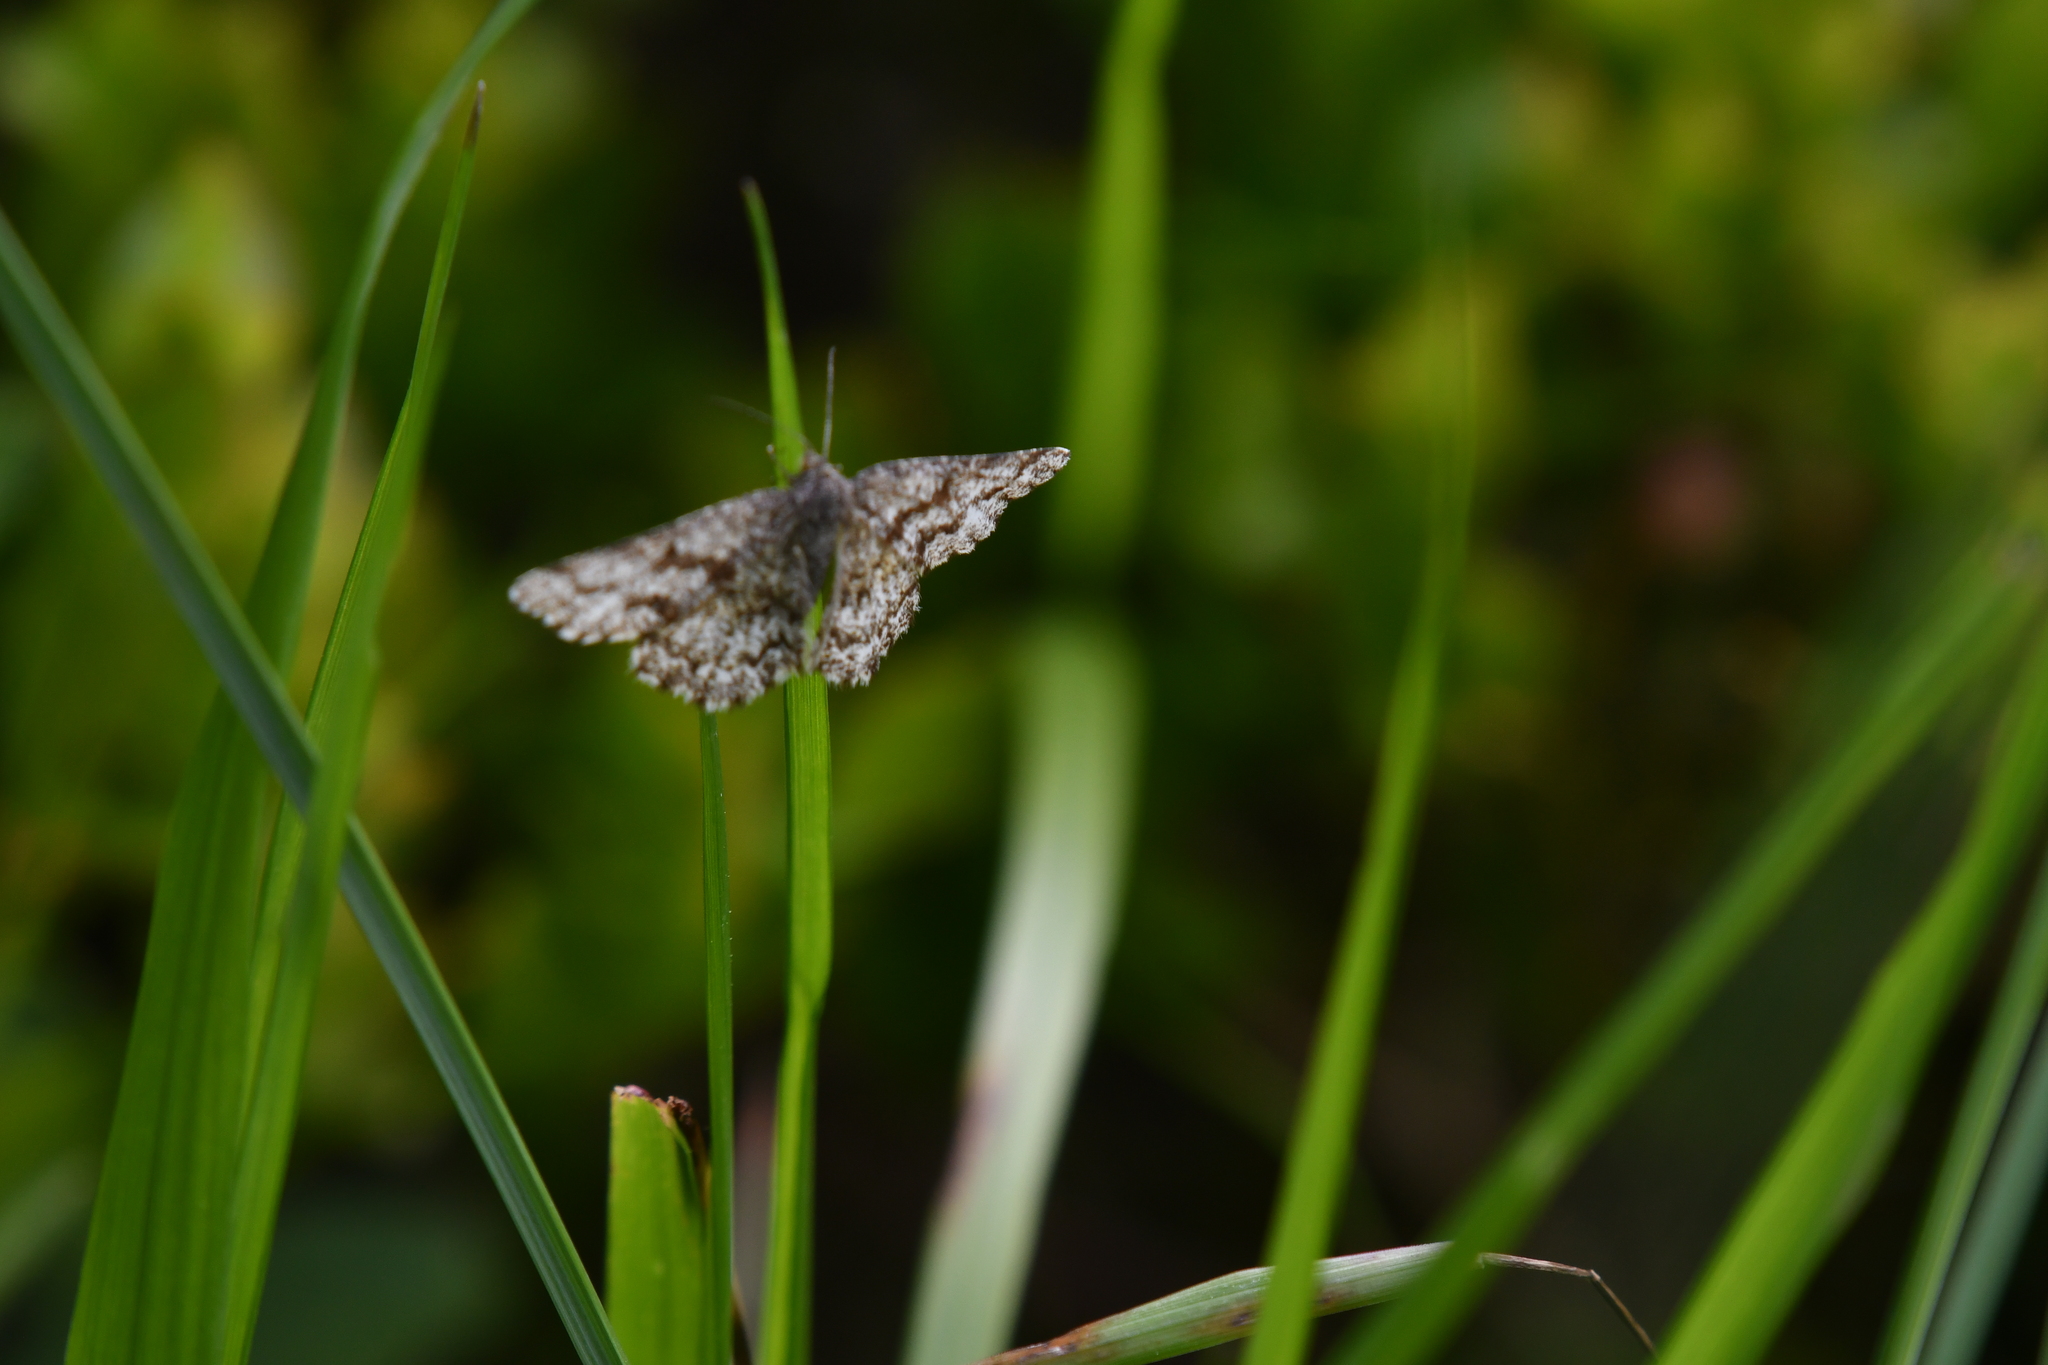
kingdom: Animalia
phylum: Arthropoda
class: Insecta
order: Lepidoptera
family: Geometridae
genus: Ematurga
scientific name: Ematurga atomaria
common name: Common heath
